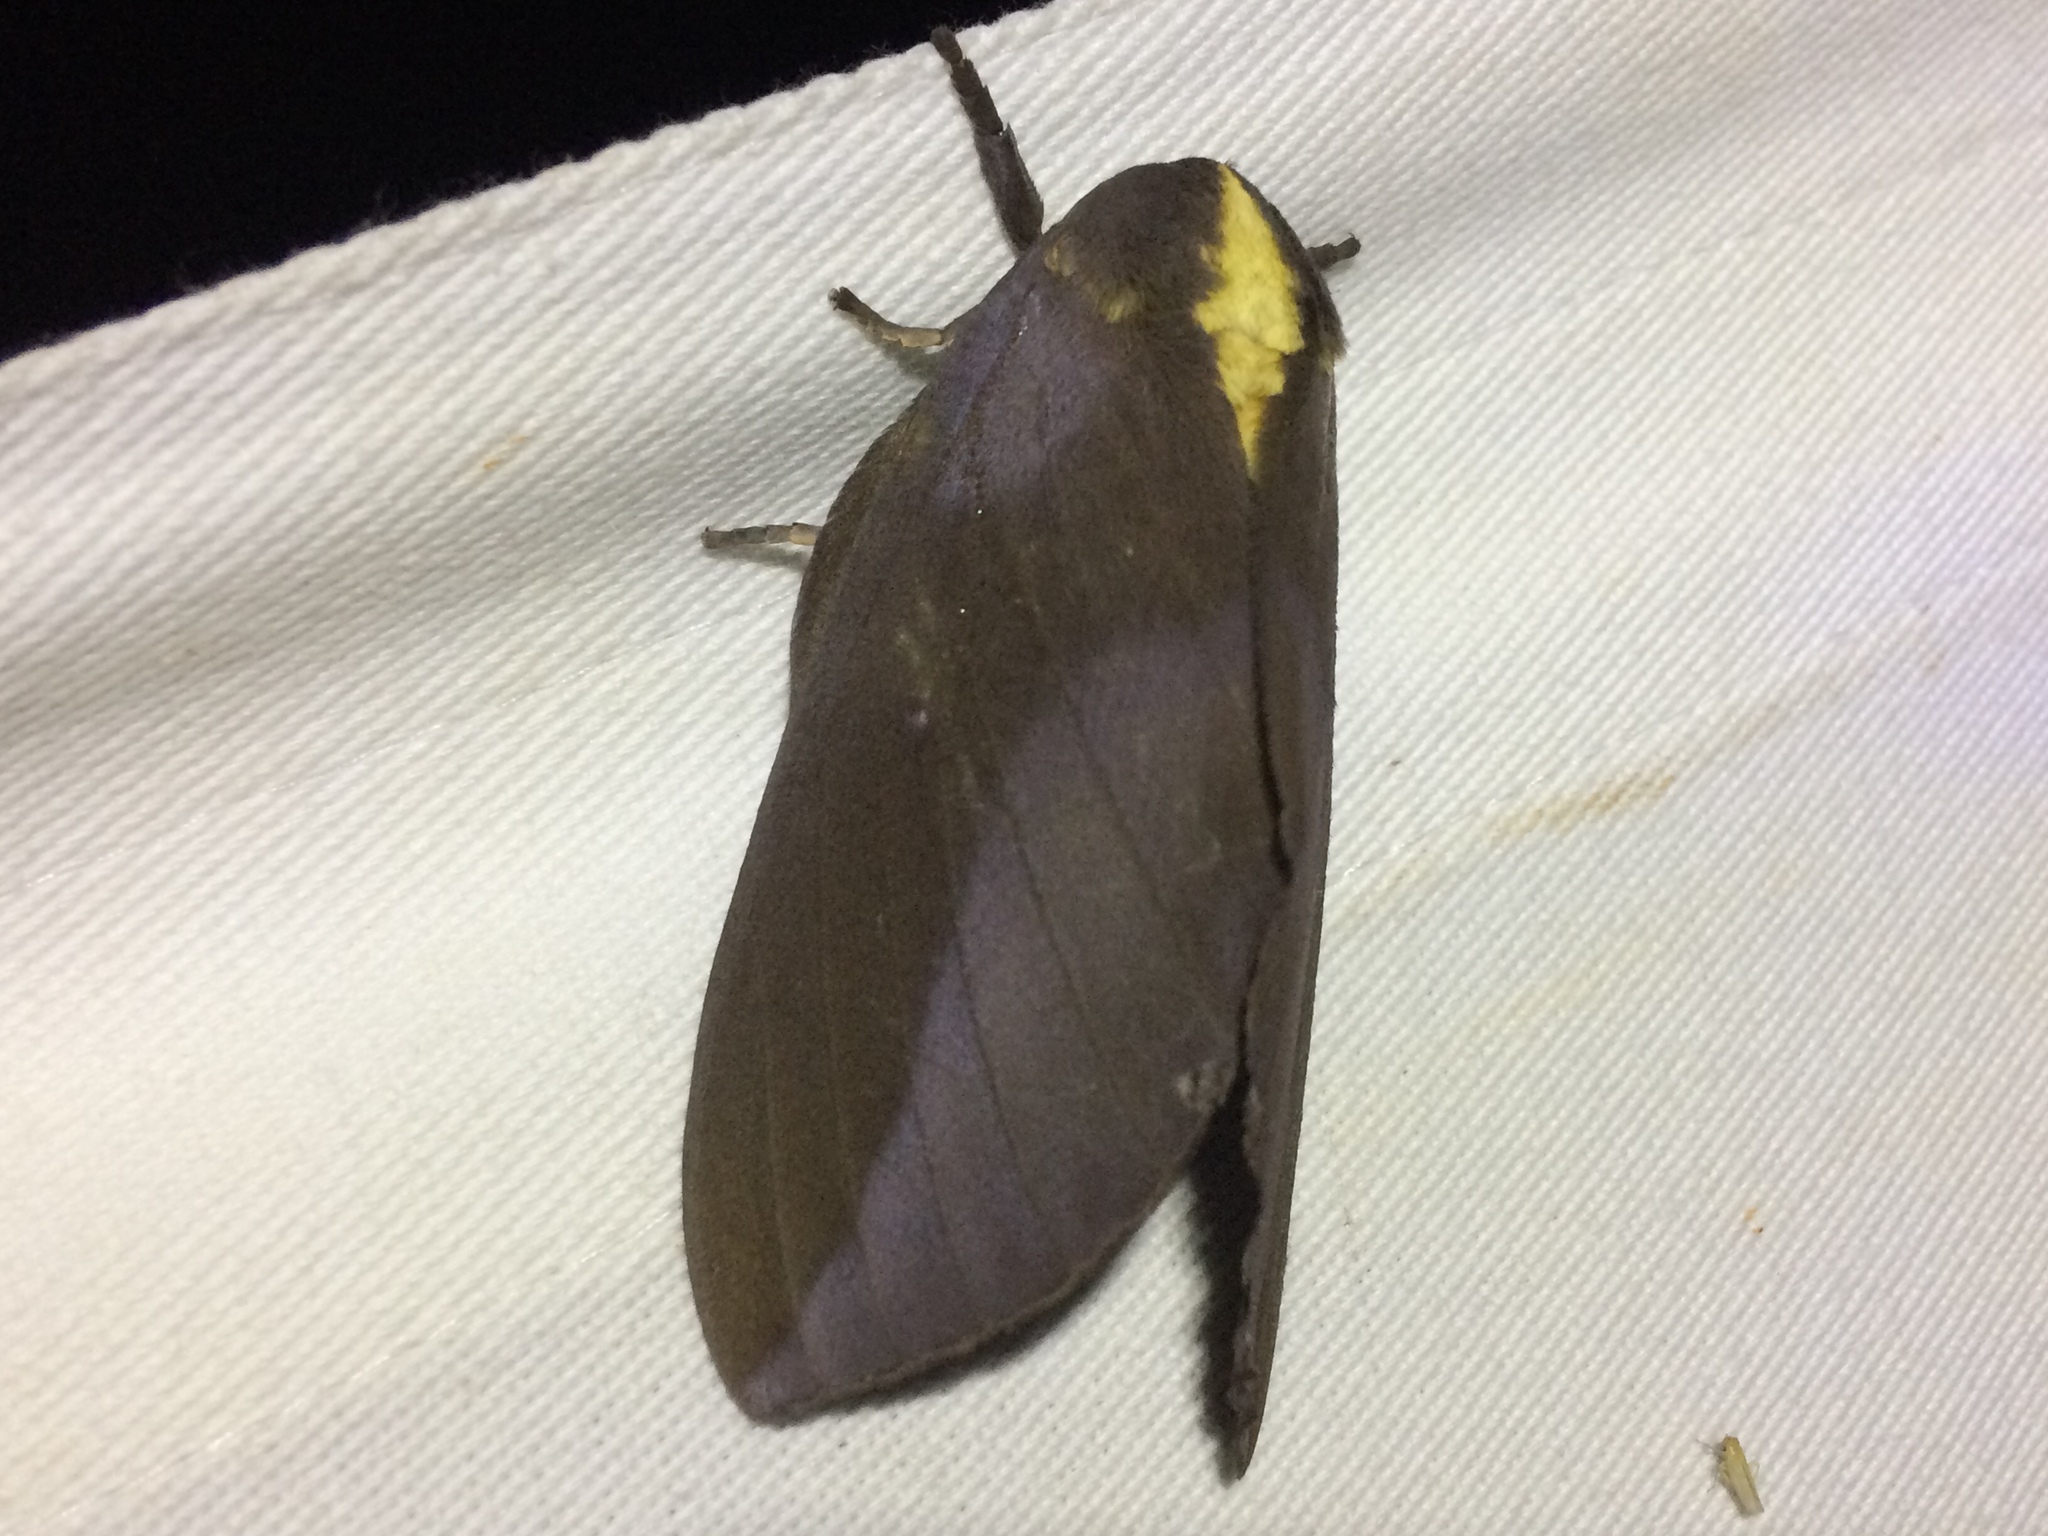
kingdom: Animalia
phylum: Arthropoda
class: Insecta
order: Lepidoptera
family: Saturniidae
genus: Adelowalkeria
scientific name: Adelowalkeria flavosignata
